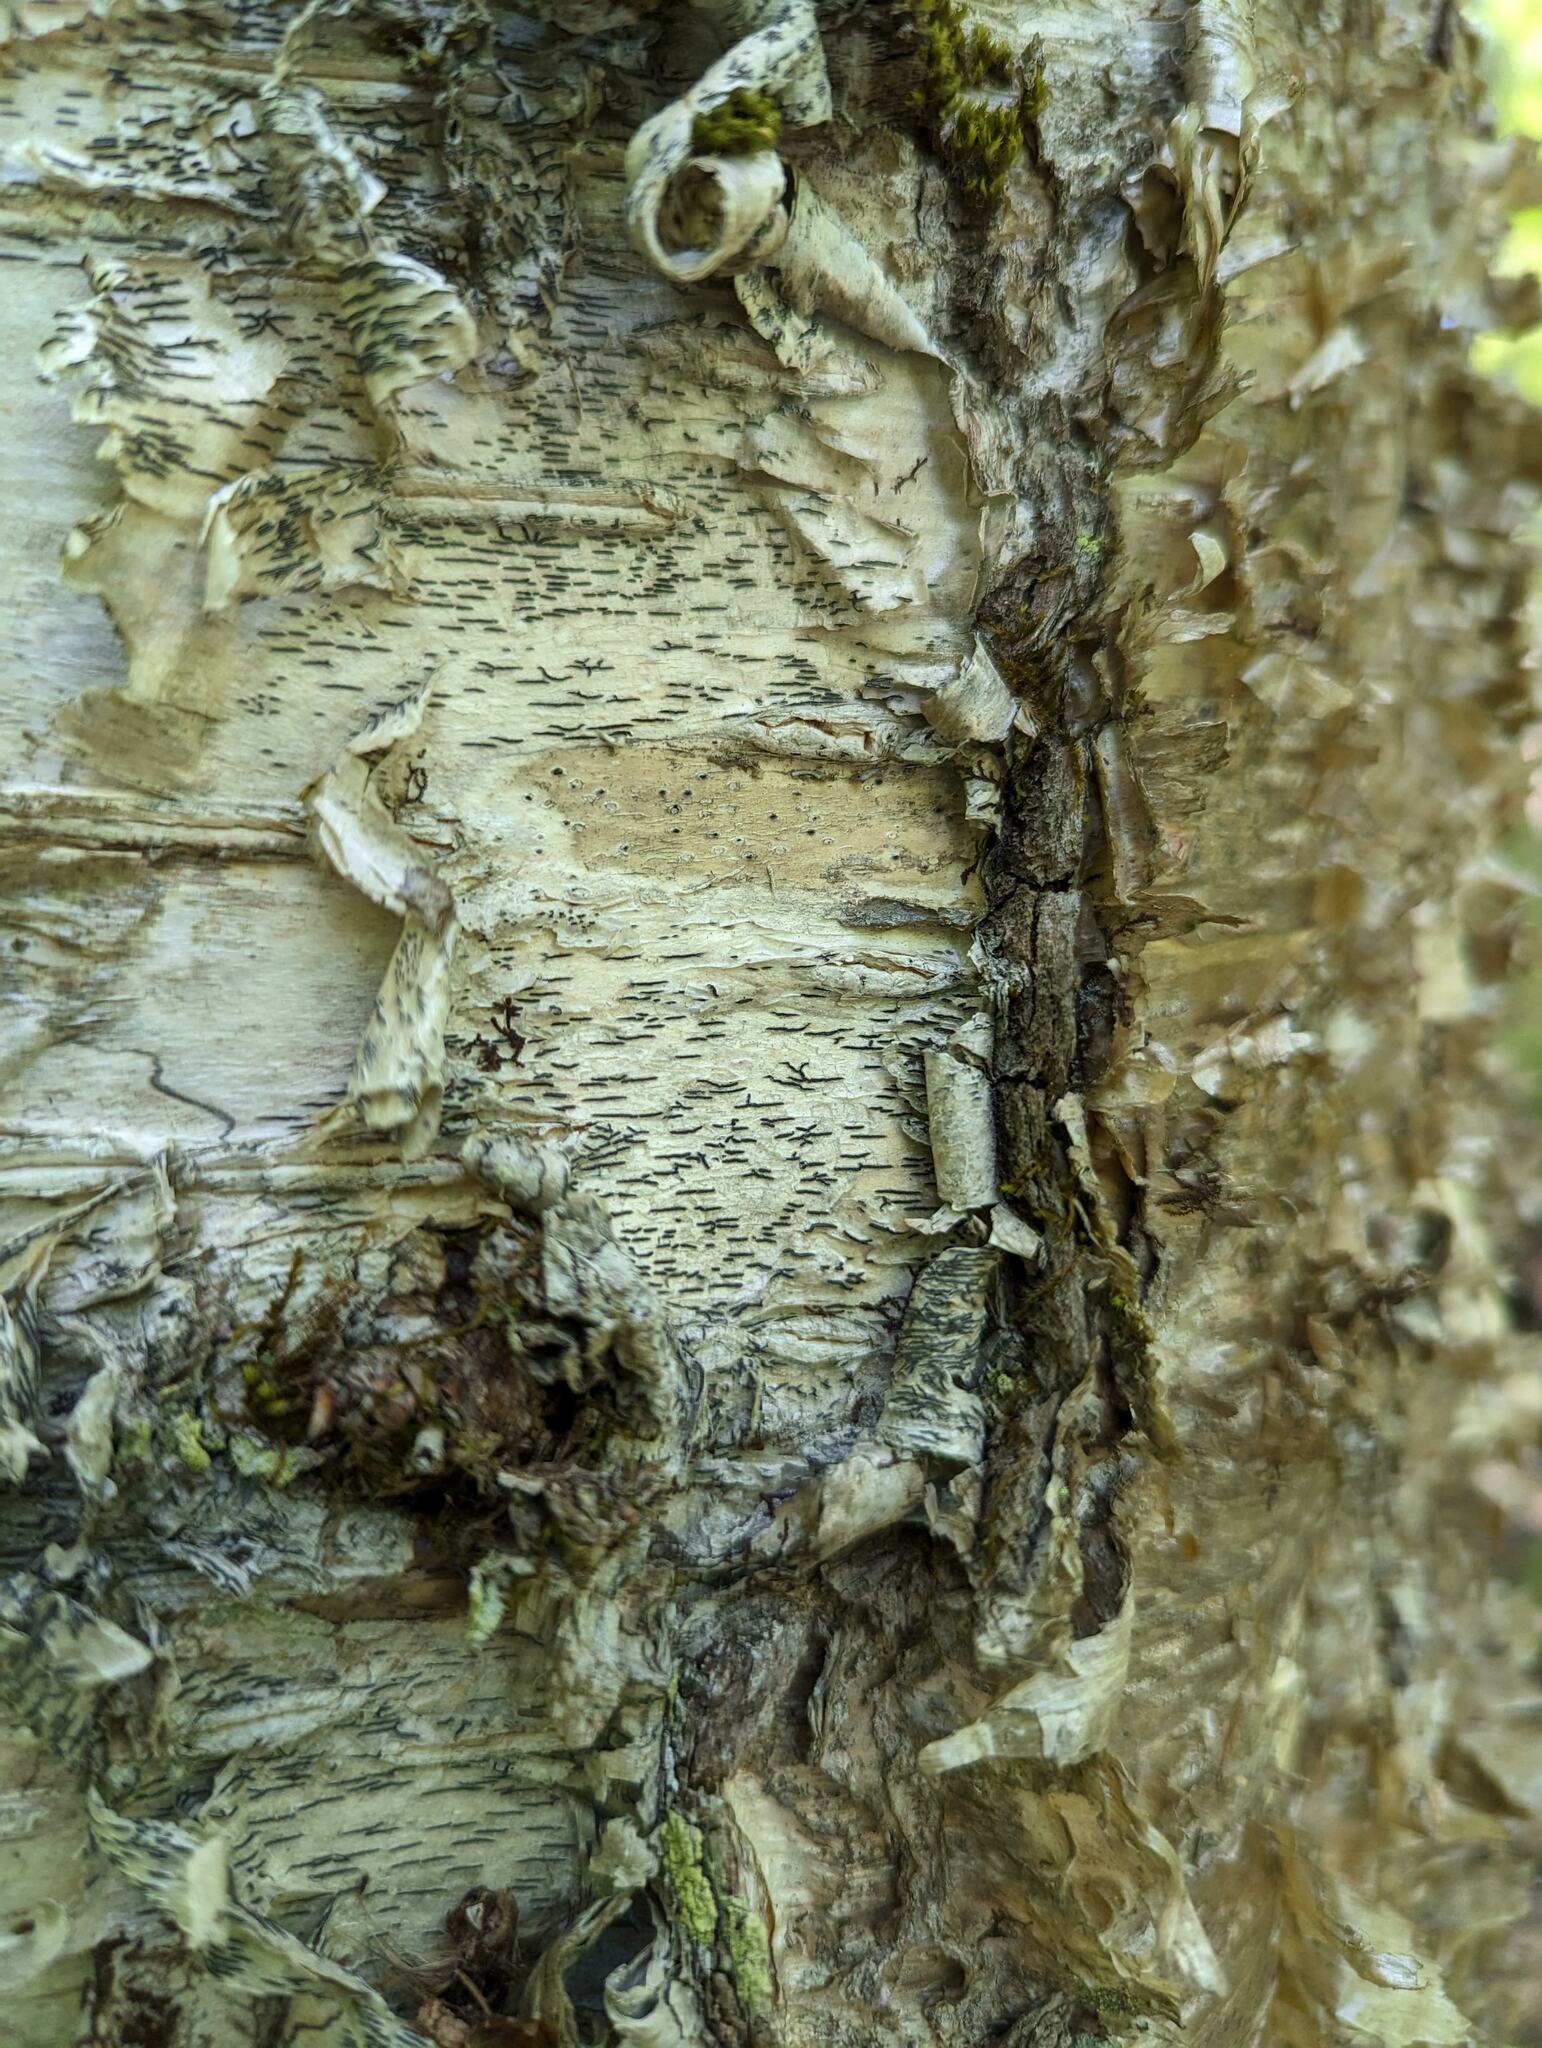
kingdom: Fungi
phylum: Ascomycota
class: Lecanoromycetes
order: Ostropales
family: Graphidaceae
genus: Graphis
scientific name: Graphis scripta
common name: Script lichen
